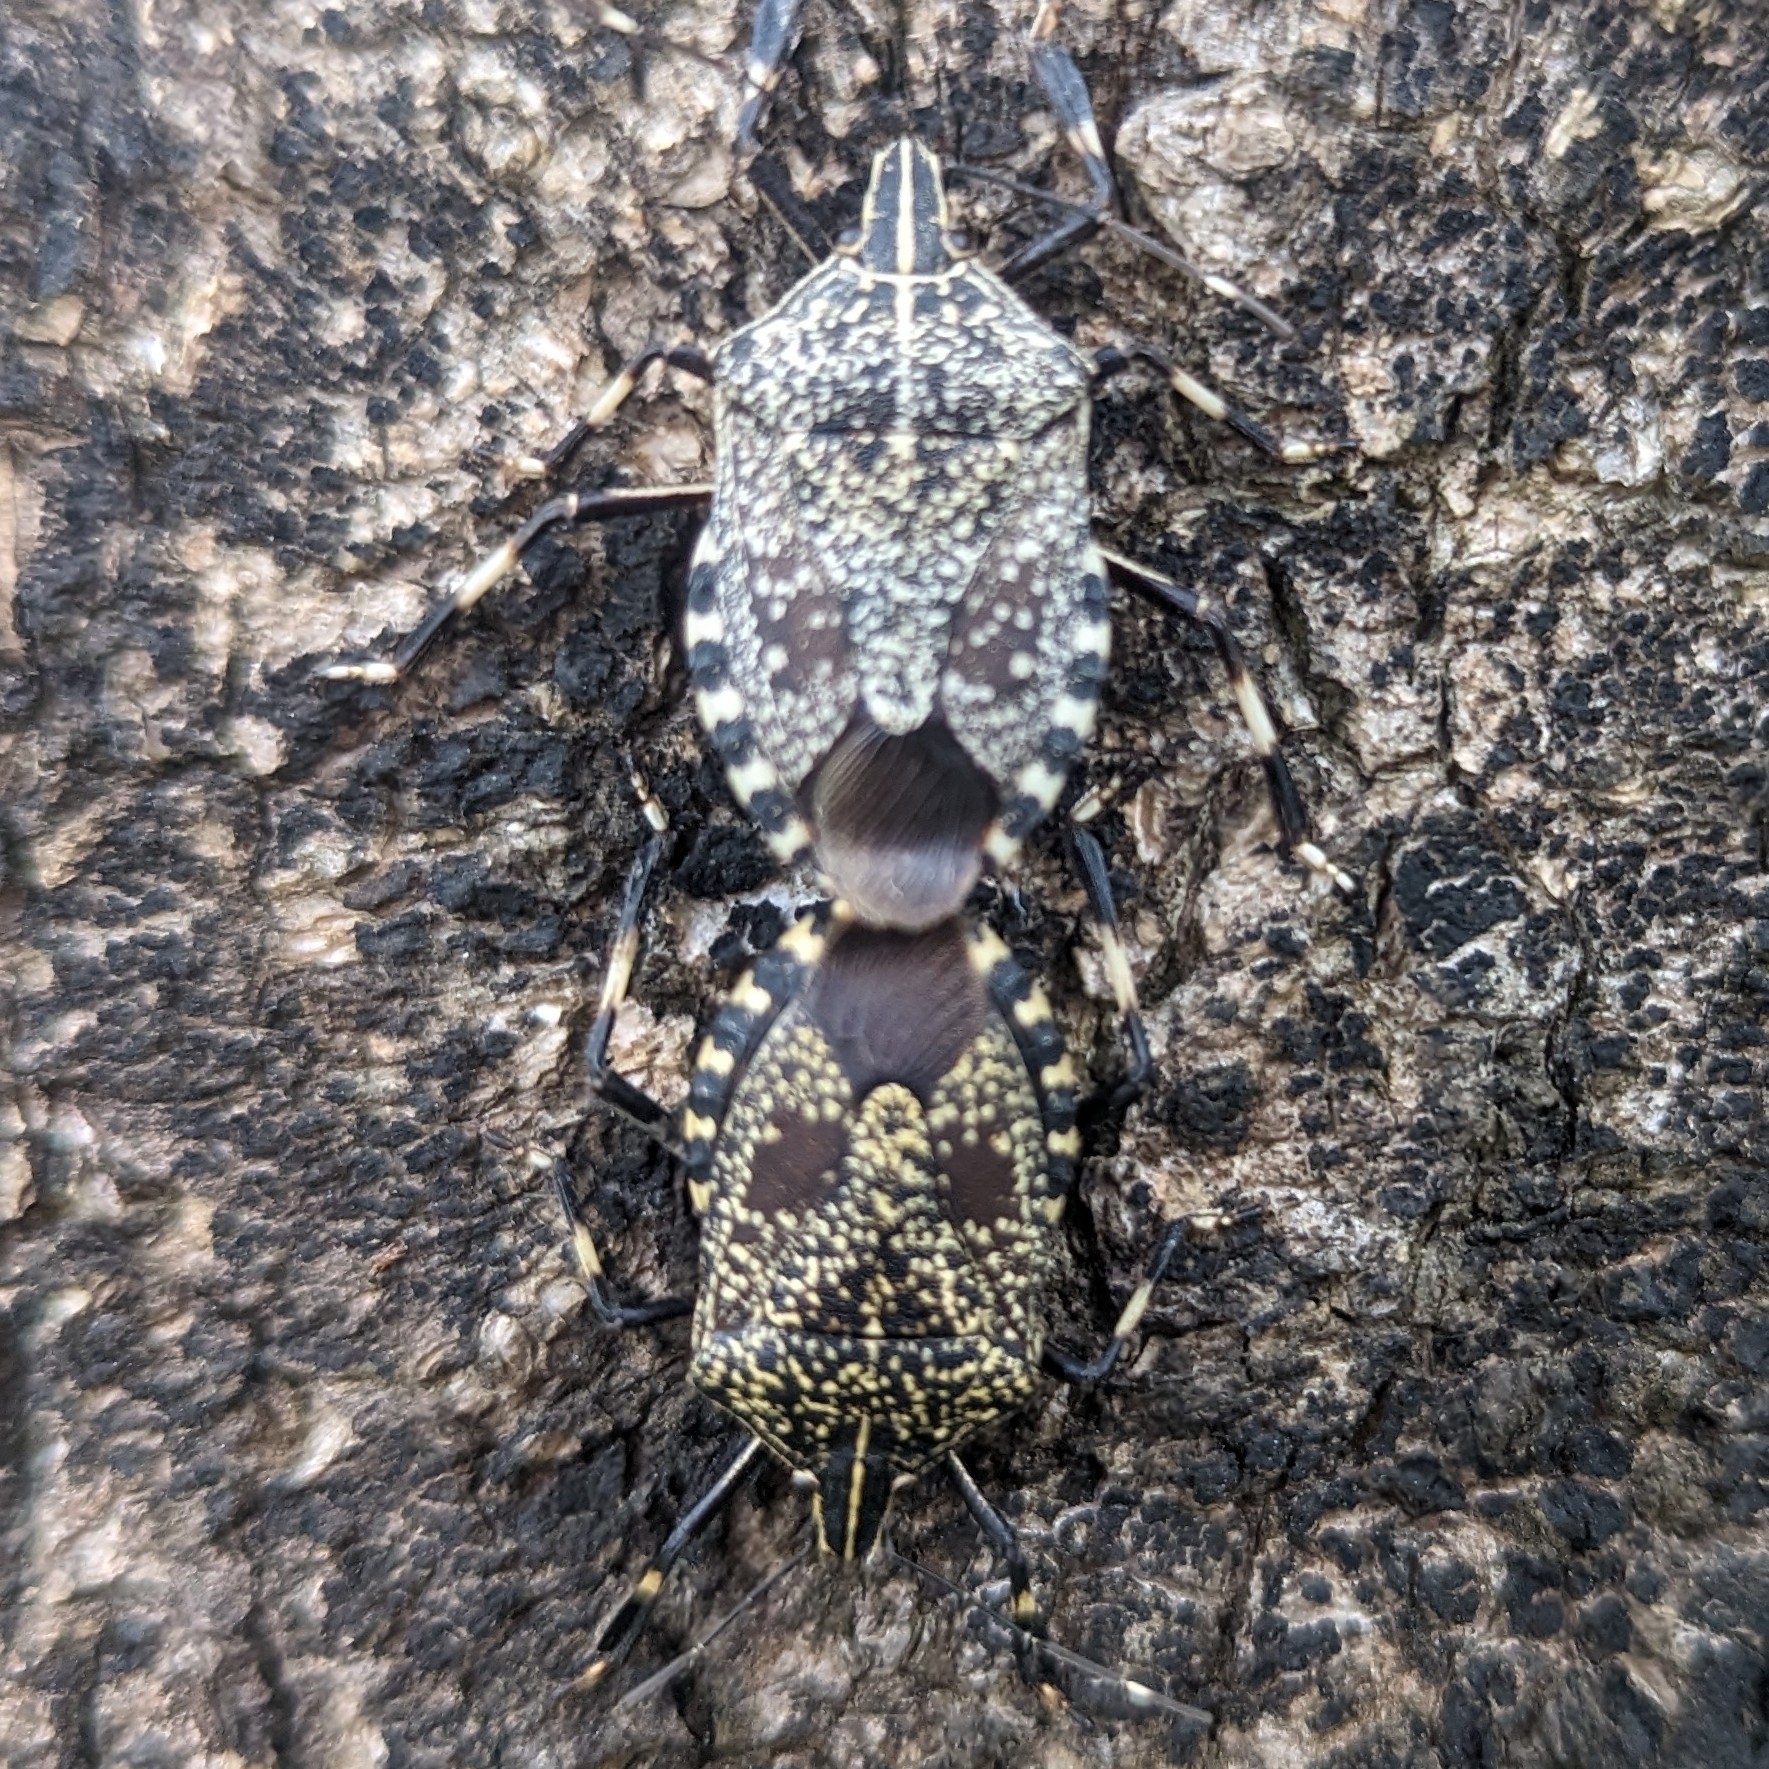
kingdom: Animalia
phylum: Arthropoda
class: Insecta
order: Hemiptera
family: Pentatomidae
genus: Erthesina
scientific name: Erthesina fullo
